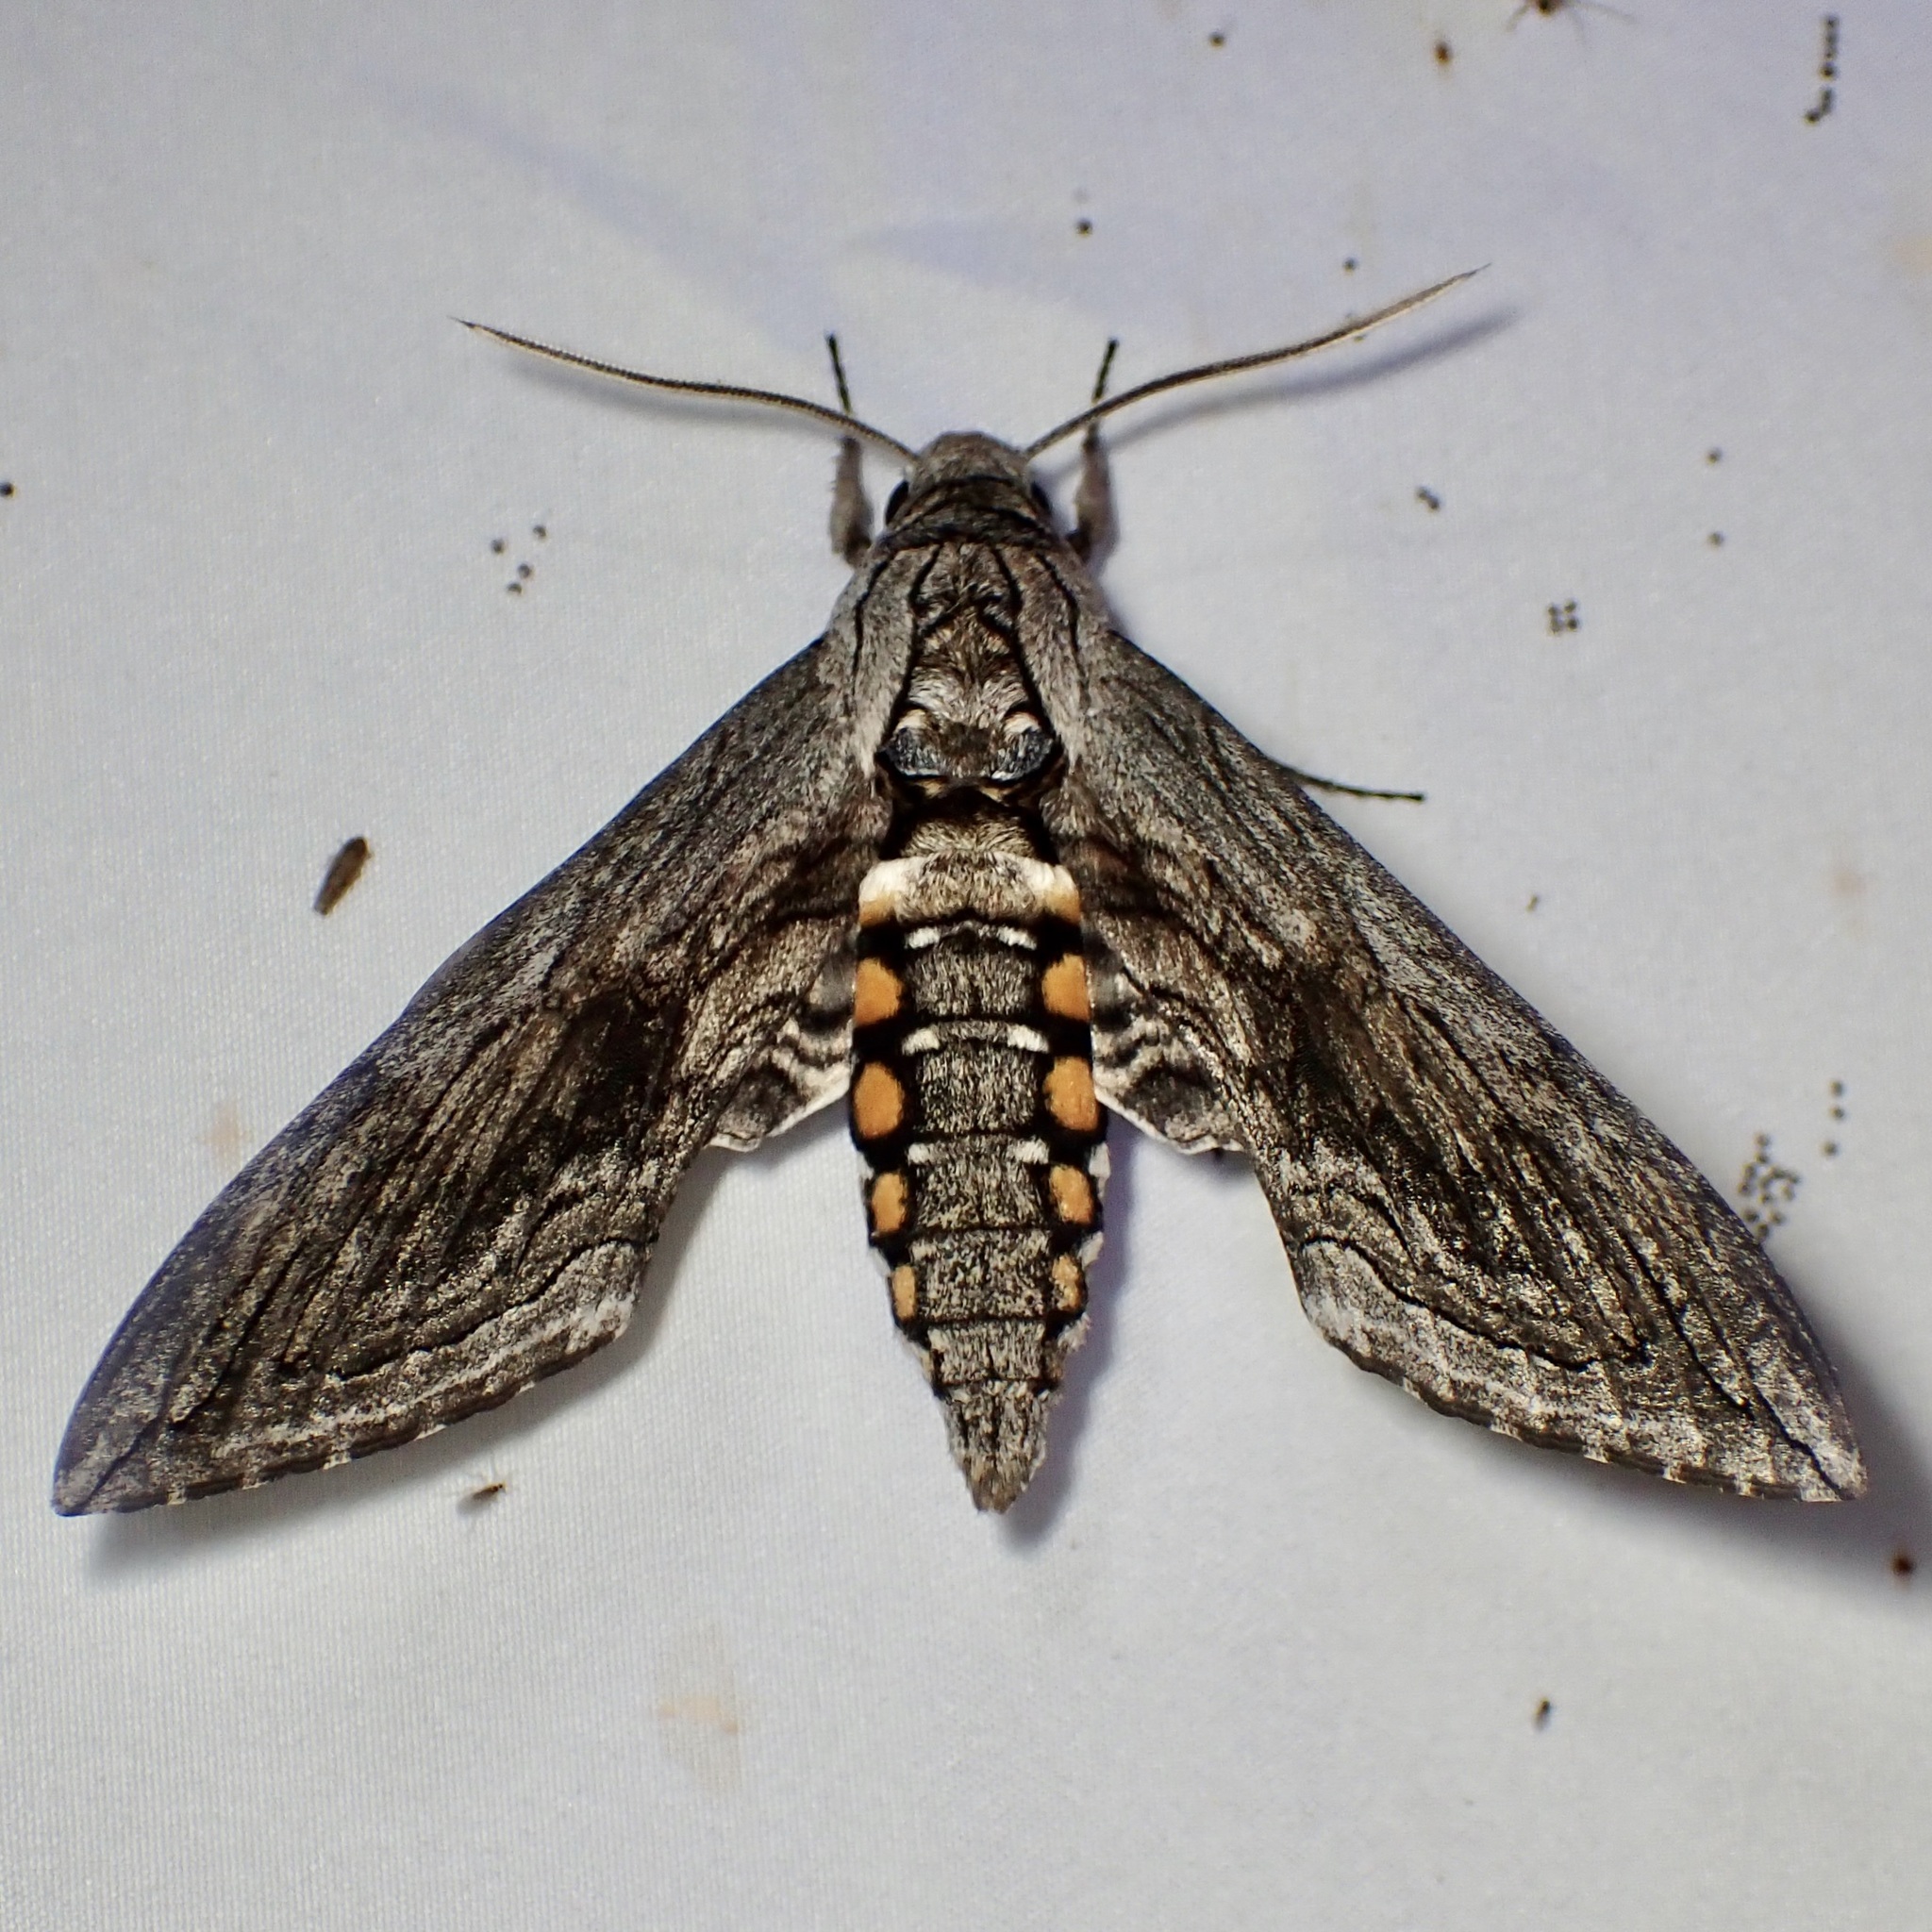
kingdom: Animalia
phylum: Arthropoda
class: Insecta
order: Lepidoptera
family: Sphingidae
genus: Manduca
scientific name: Manduca quinquemaculatus
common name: Five-spotted hawk-moth
